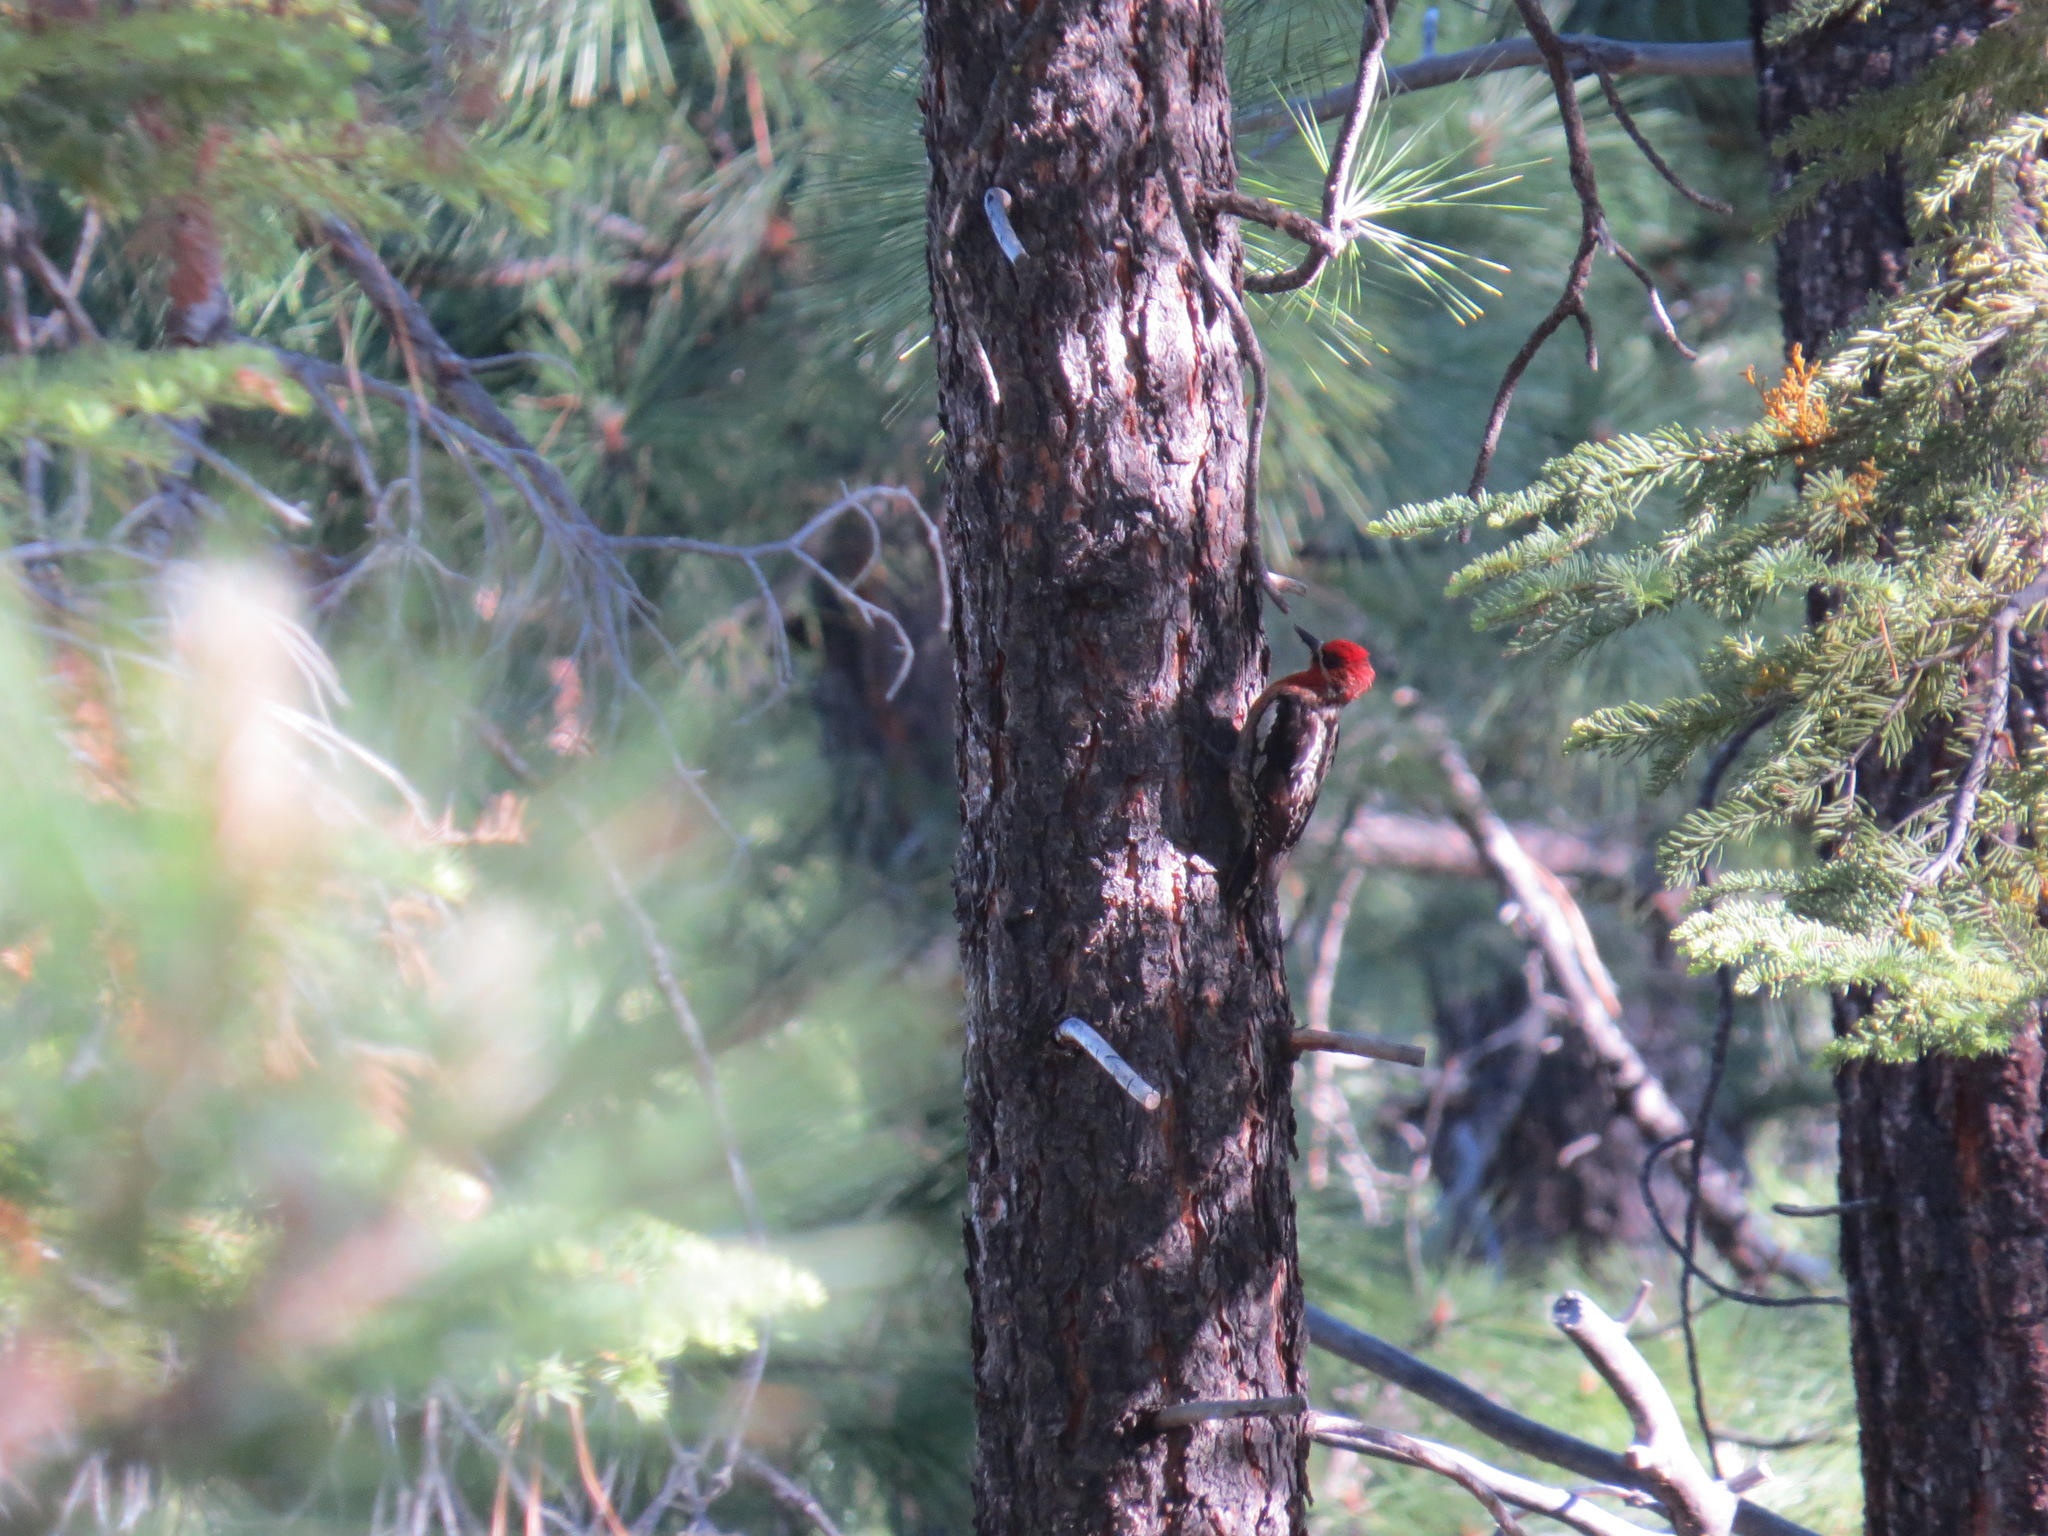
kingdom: Animalia
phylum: Chordata
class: Aves
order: Piciformes
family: Picidae
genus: Sphyrapicus
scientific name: Sphyrapicus ruber
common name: Red-breasted sapsucker
